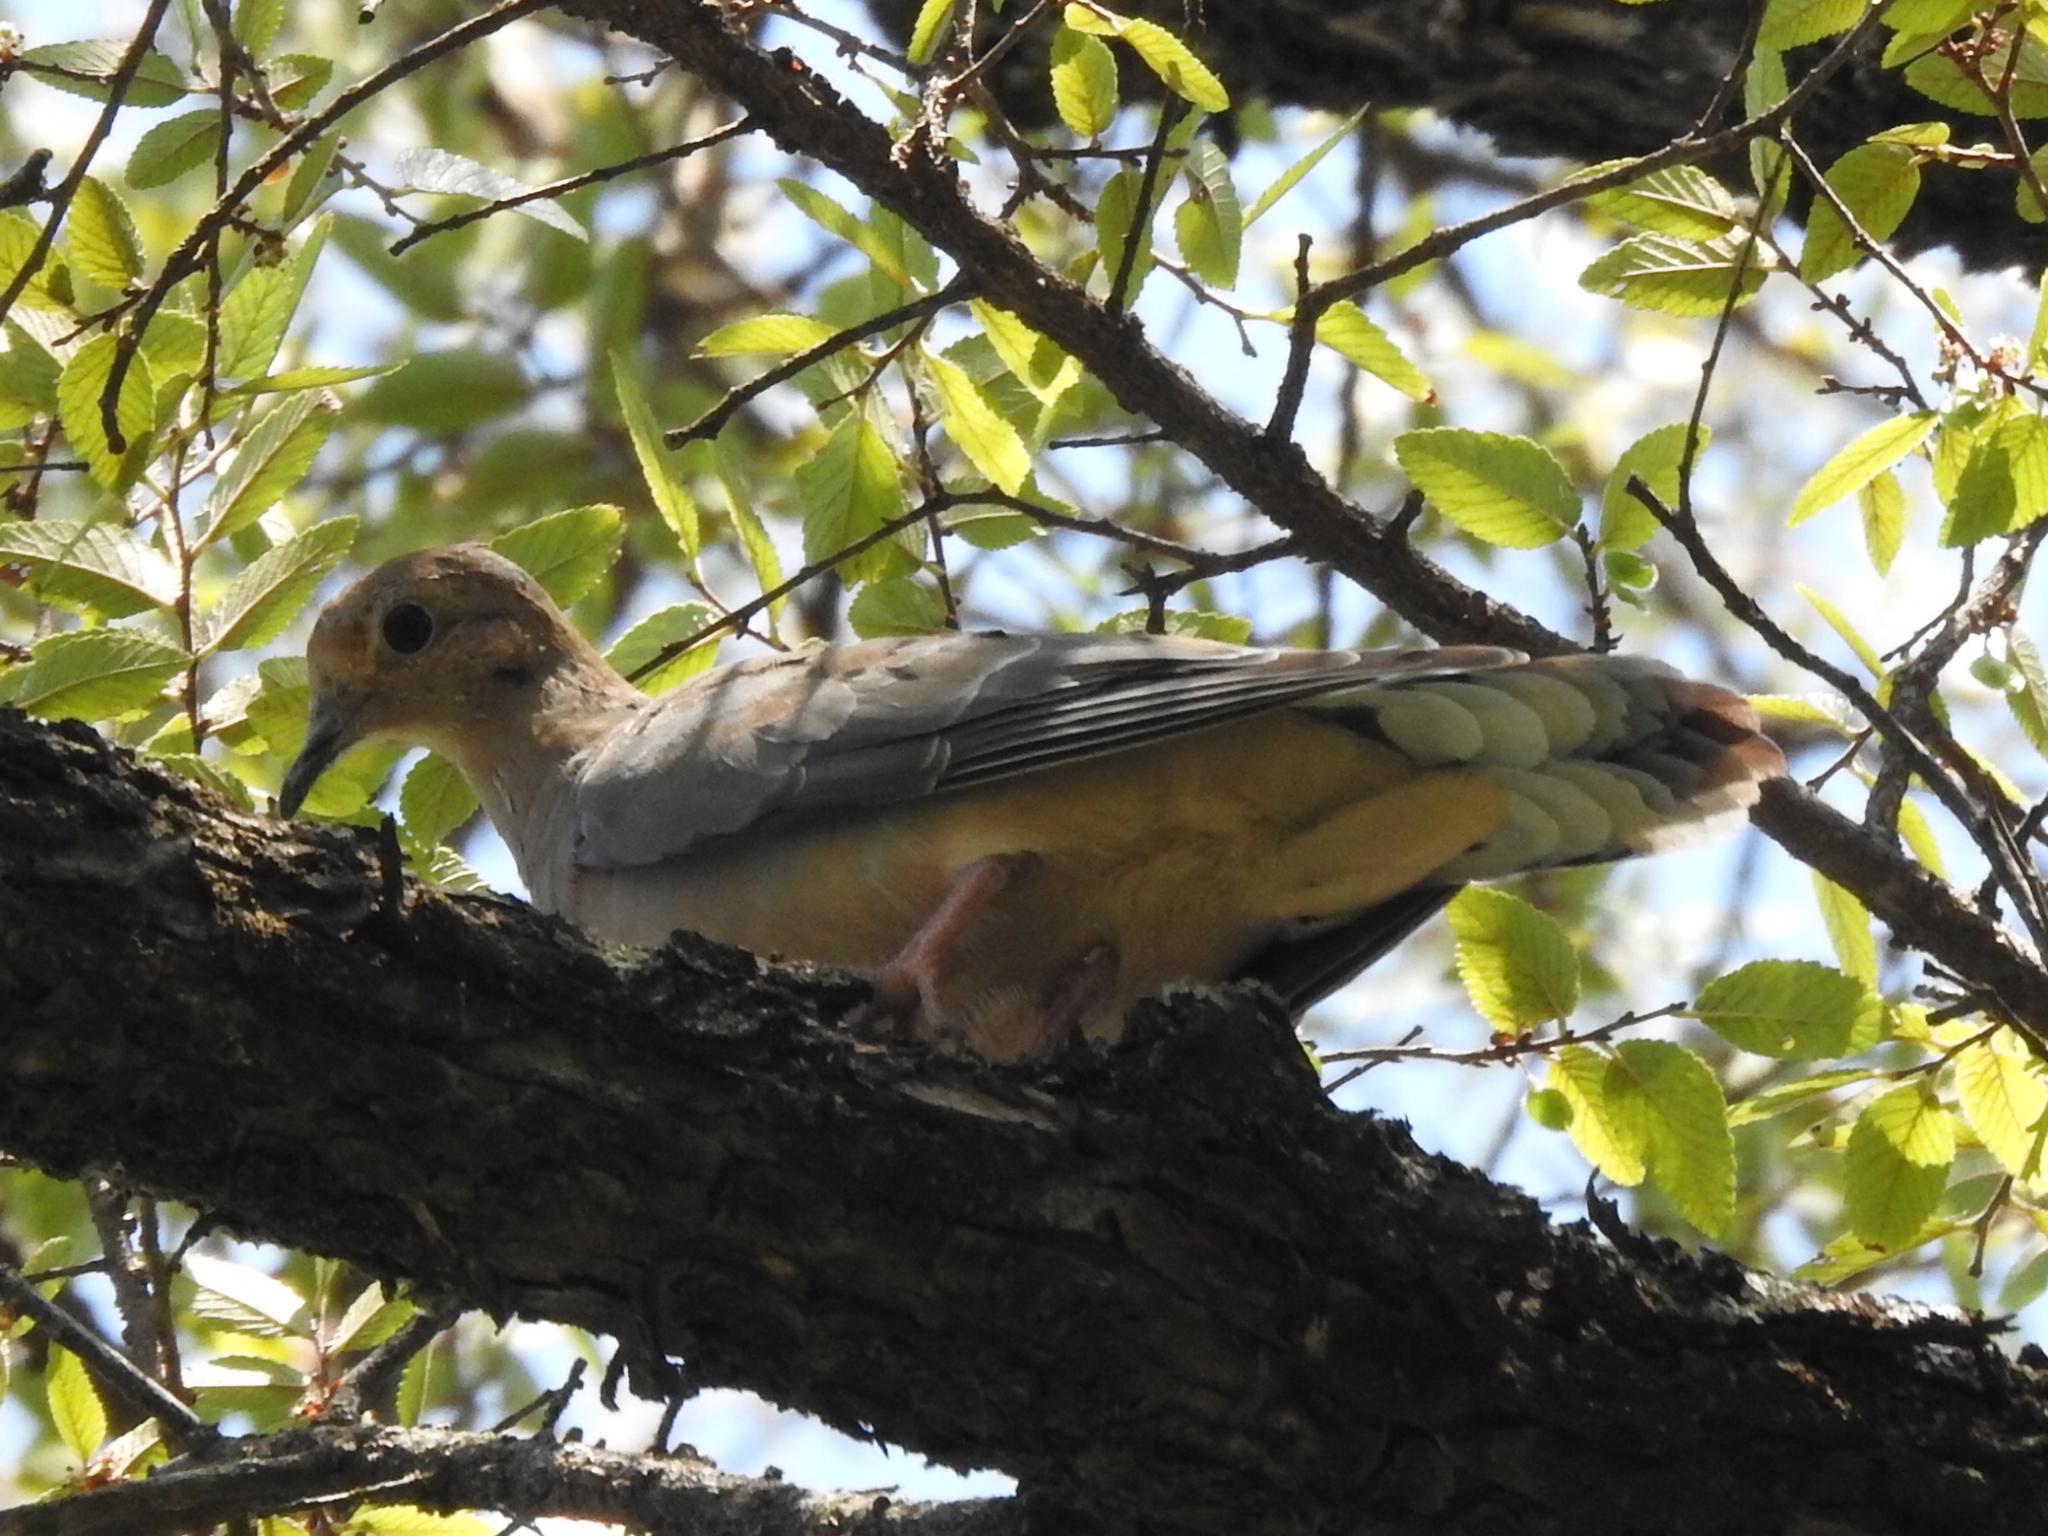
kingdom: Animalia
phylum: Chordata
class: Aves
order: Columbiformes
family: Columbidae
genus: Zenaida
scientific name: Zenaida macroura
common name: Mourning dove
